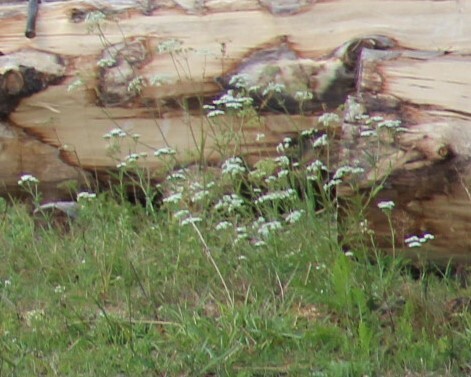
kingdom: Plantae
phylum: Tracheophyta
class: Magnoliopsida
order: Apiales
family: Apiaceae
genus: Carum
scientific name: Carum carvi
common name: Caraway
